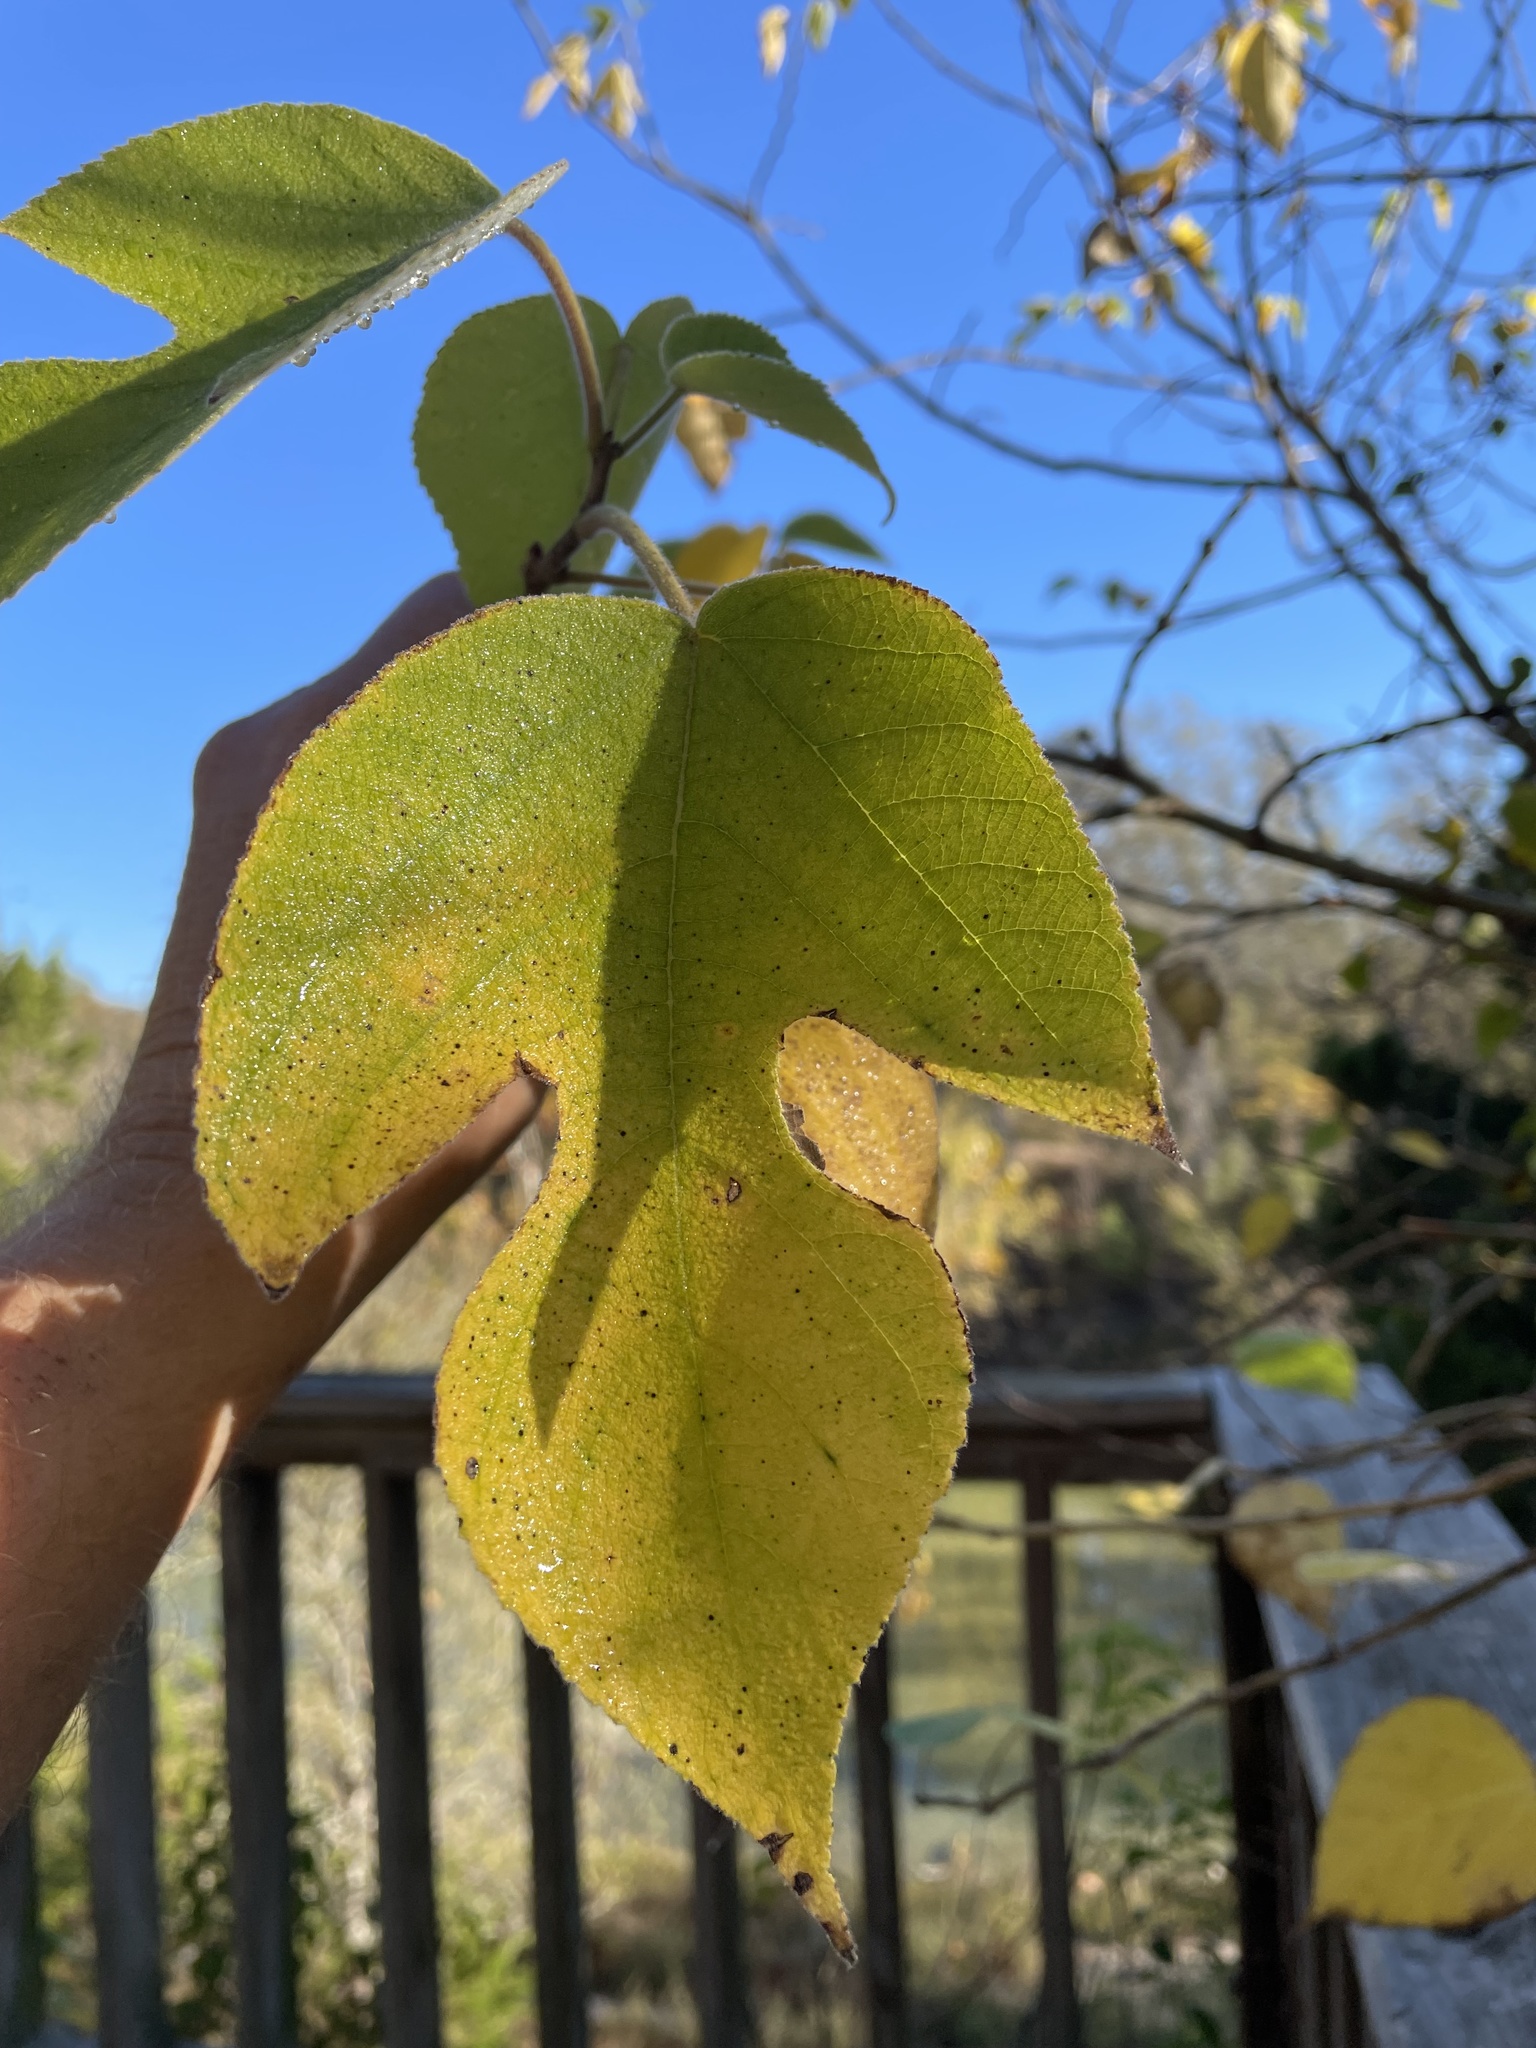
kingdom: Plantae
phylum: Tracheophyta
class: Magnoliopsida
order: Rosales
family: Moraceae
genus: Broussonetia
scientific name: Broussonetia papyrifera
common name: Paper mulberry
